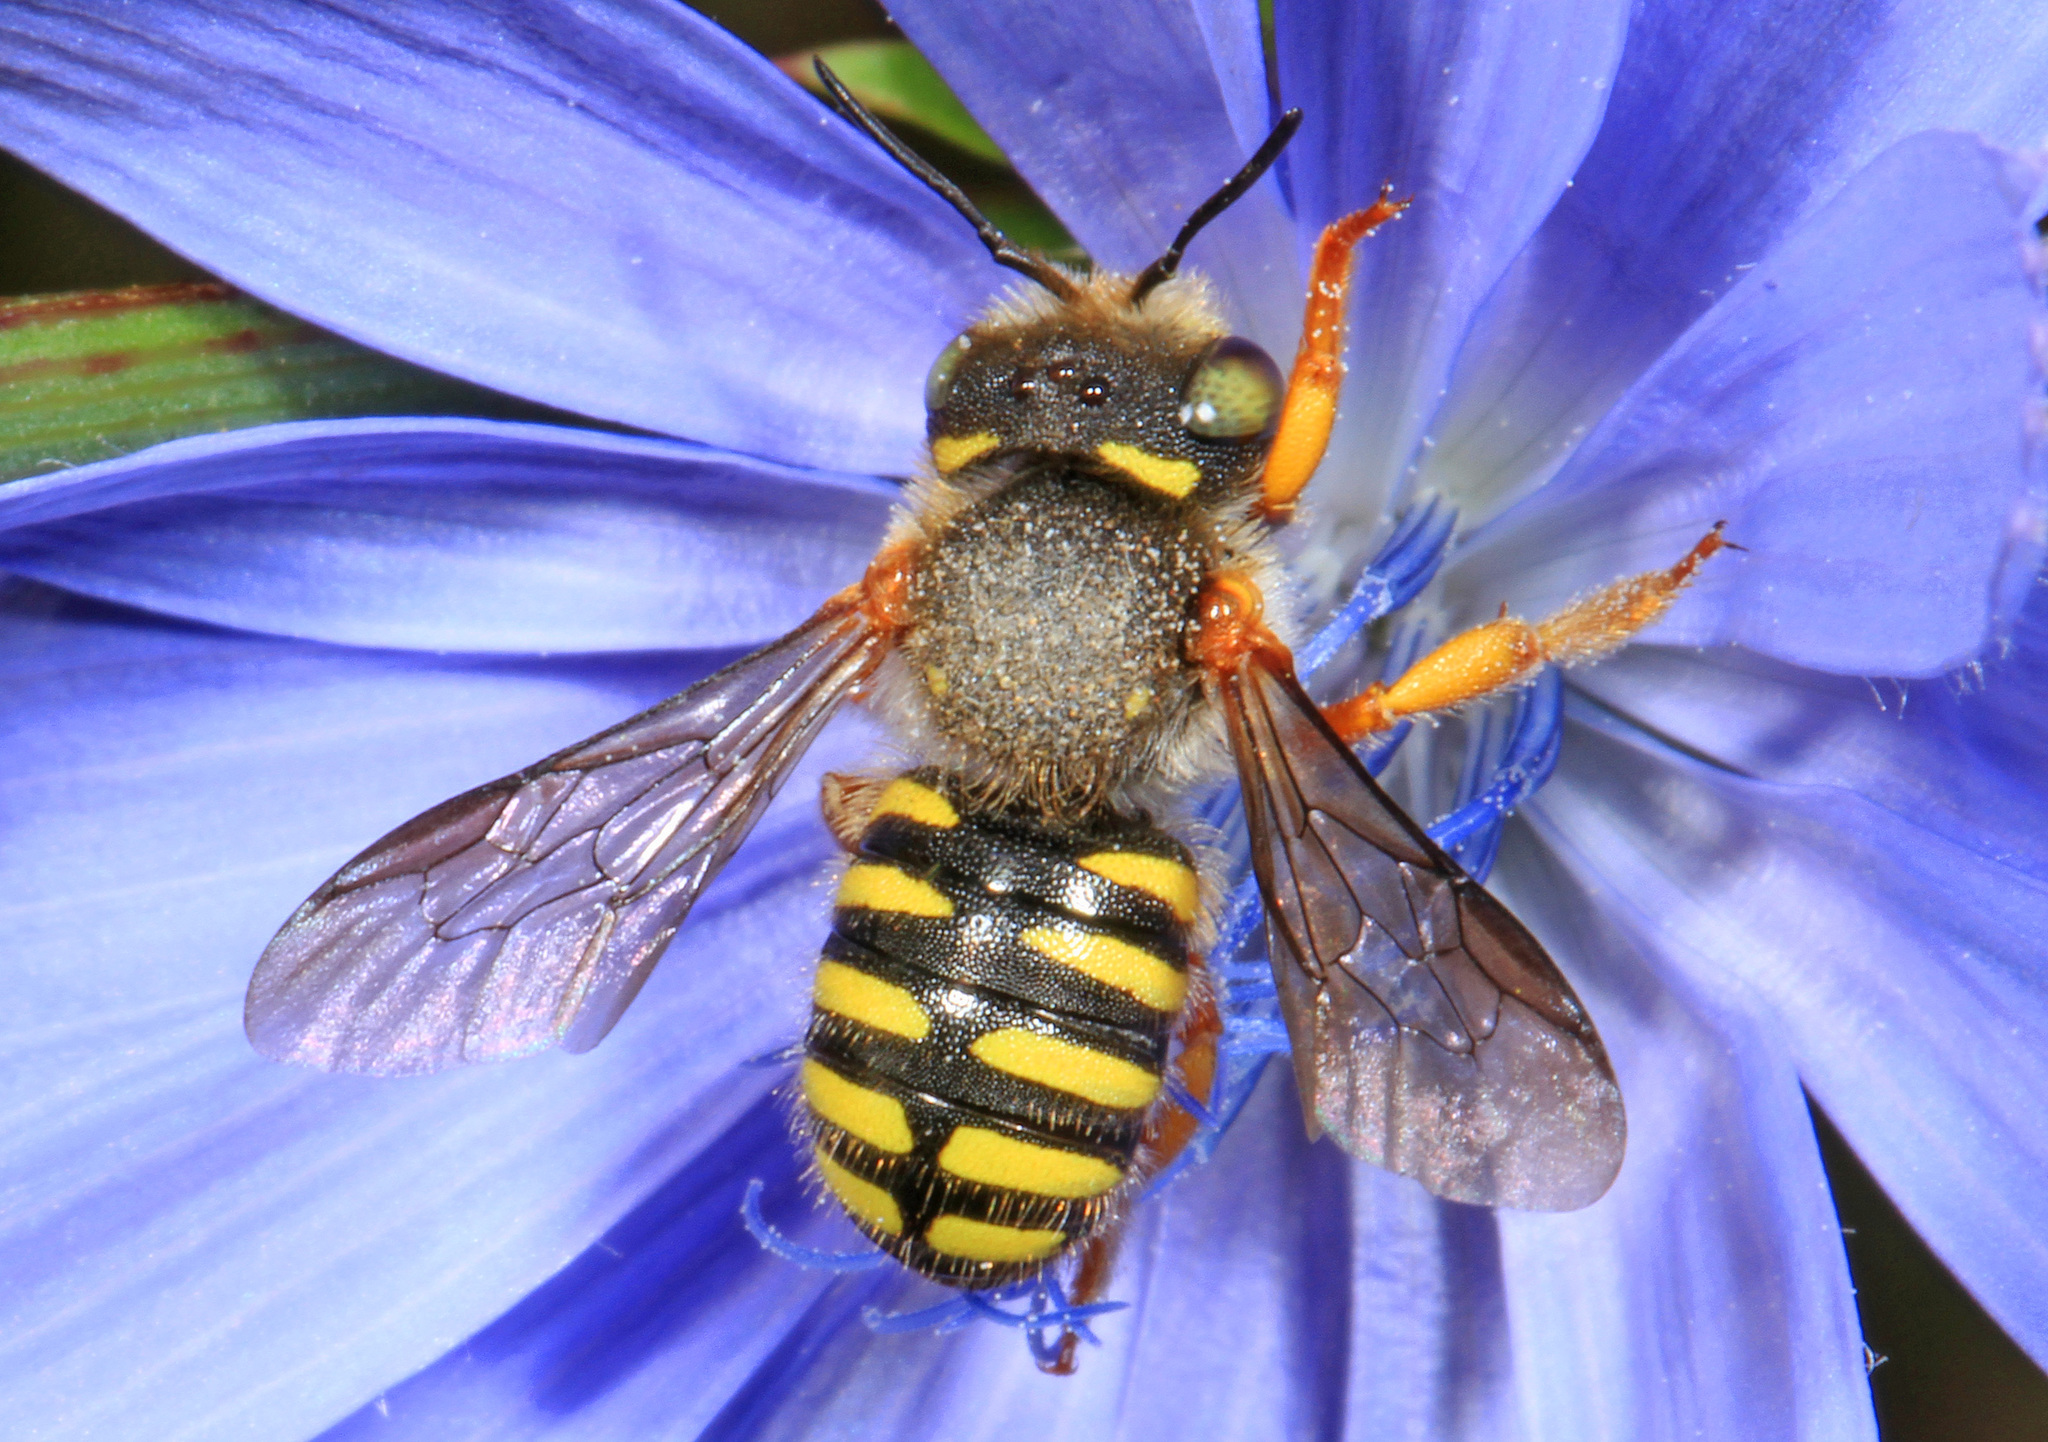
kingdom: Animalia
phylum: Arthropoda
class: Insecta
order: Hymenoptera
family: Megachilidae
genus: Anthidium
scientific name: Anthidium oblongatum
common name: Oblong wool carder bee
